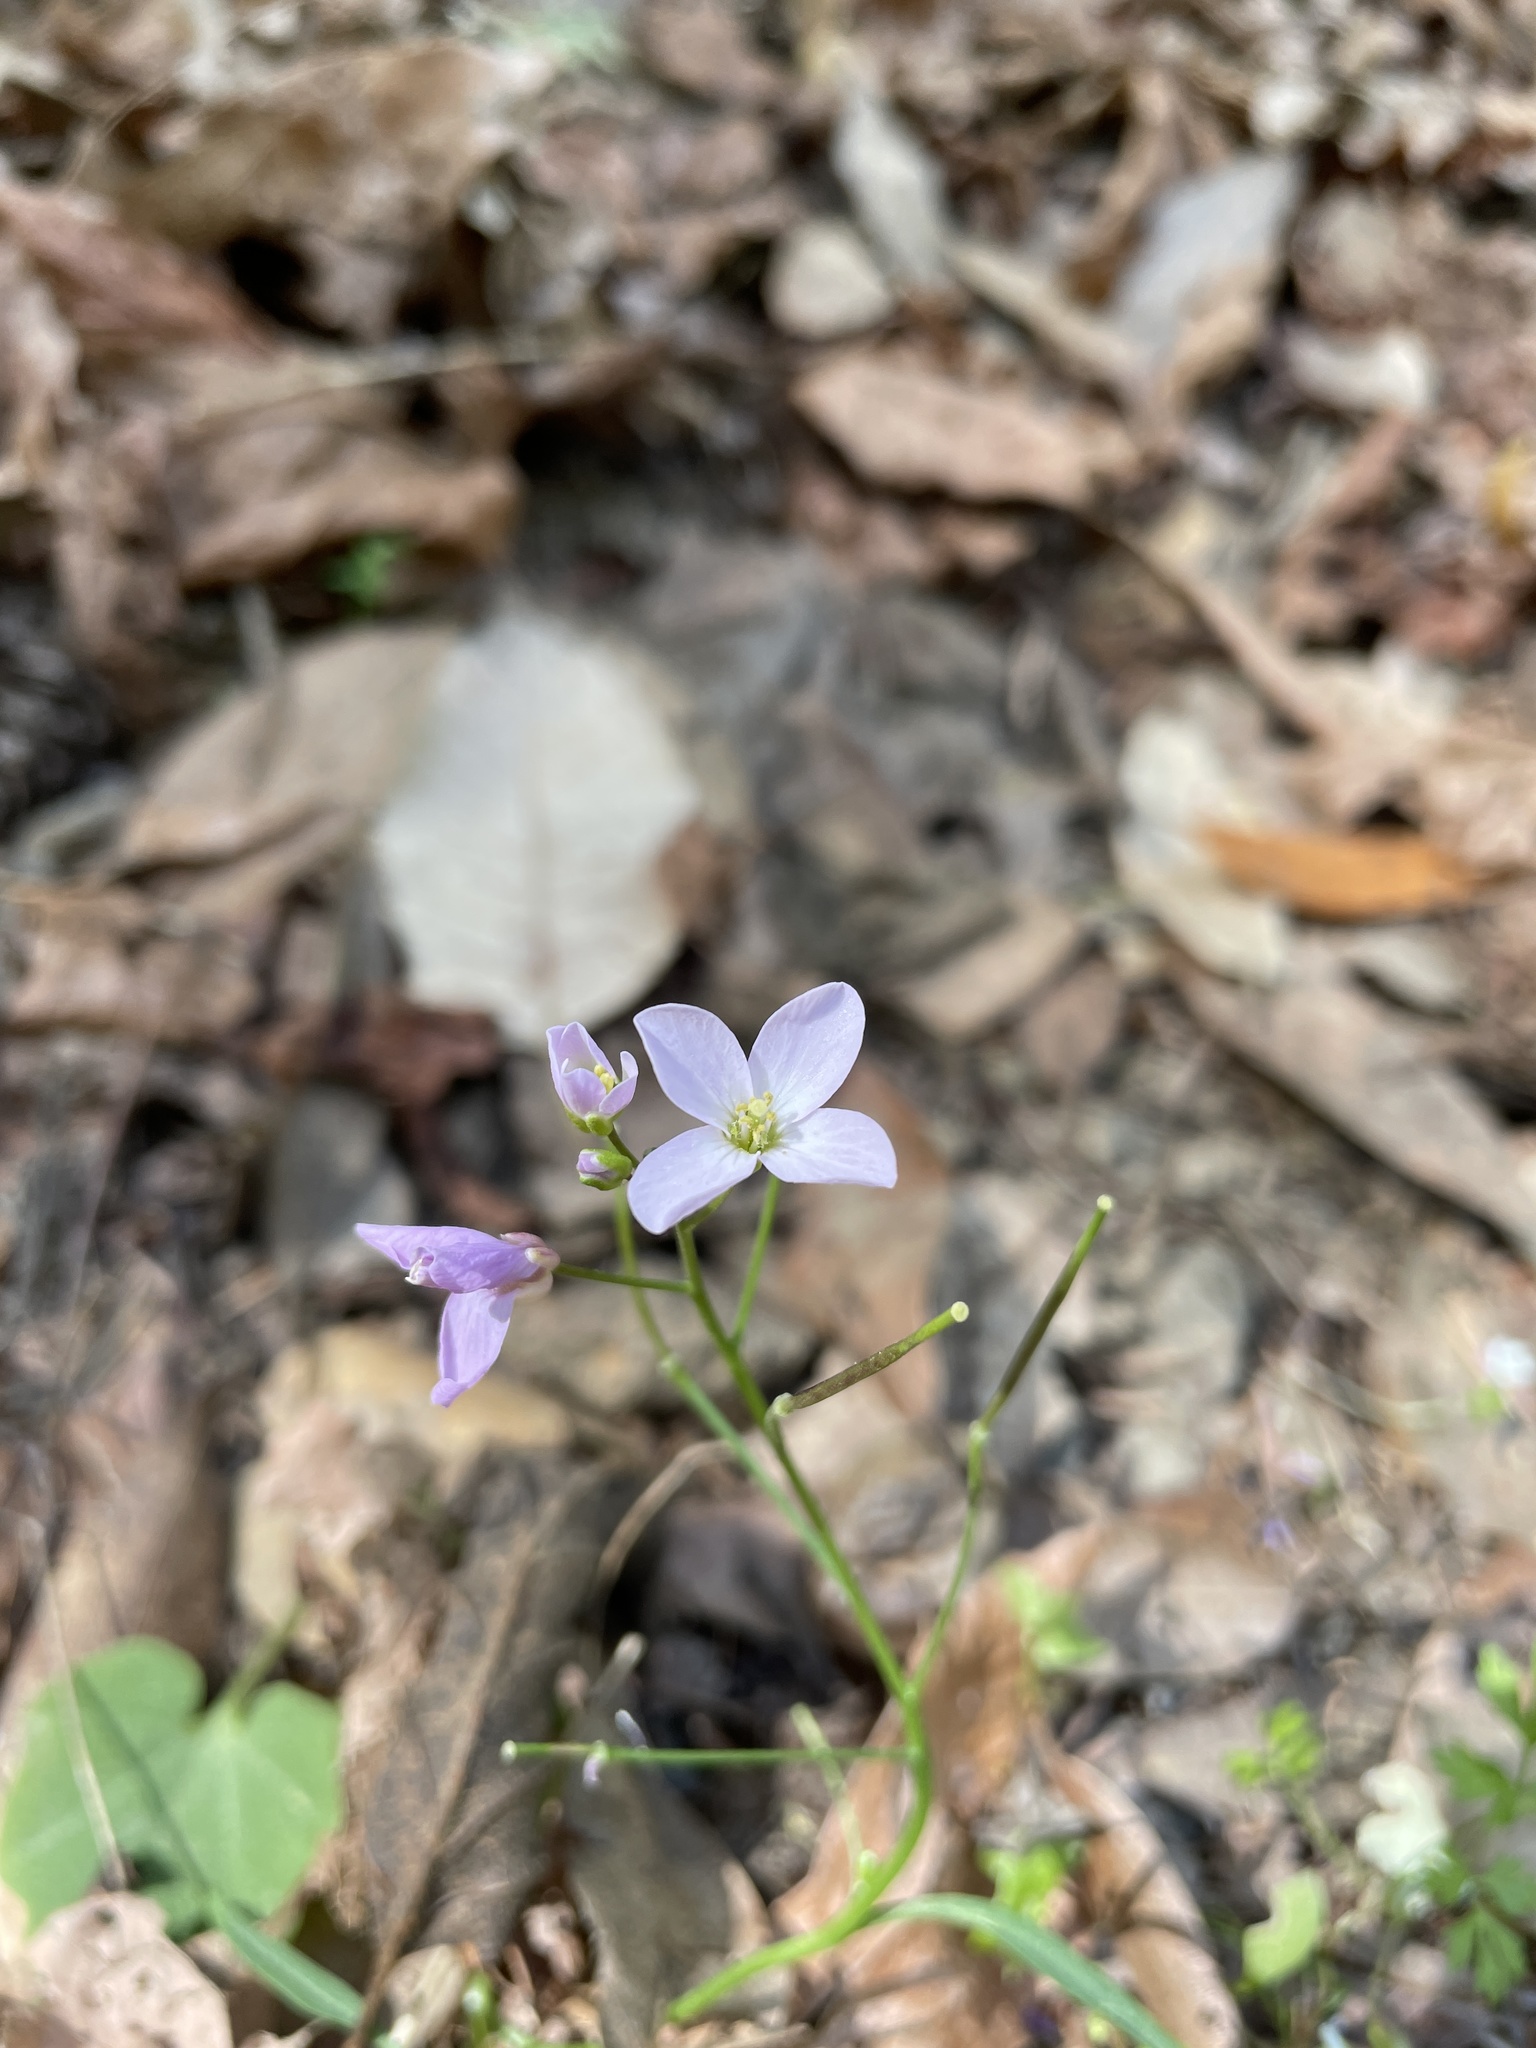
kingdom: Plantae
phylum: Tracheophyta
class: Magnoliopsida
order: Brassicales
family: Brassicaceae
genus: Cardamine
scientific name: Cardamine californica
